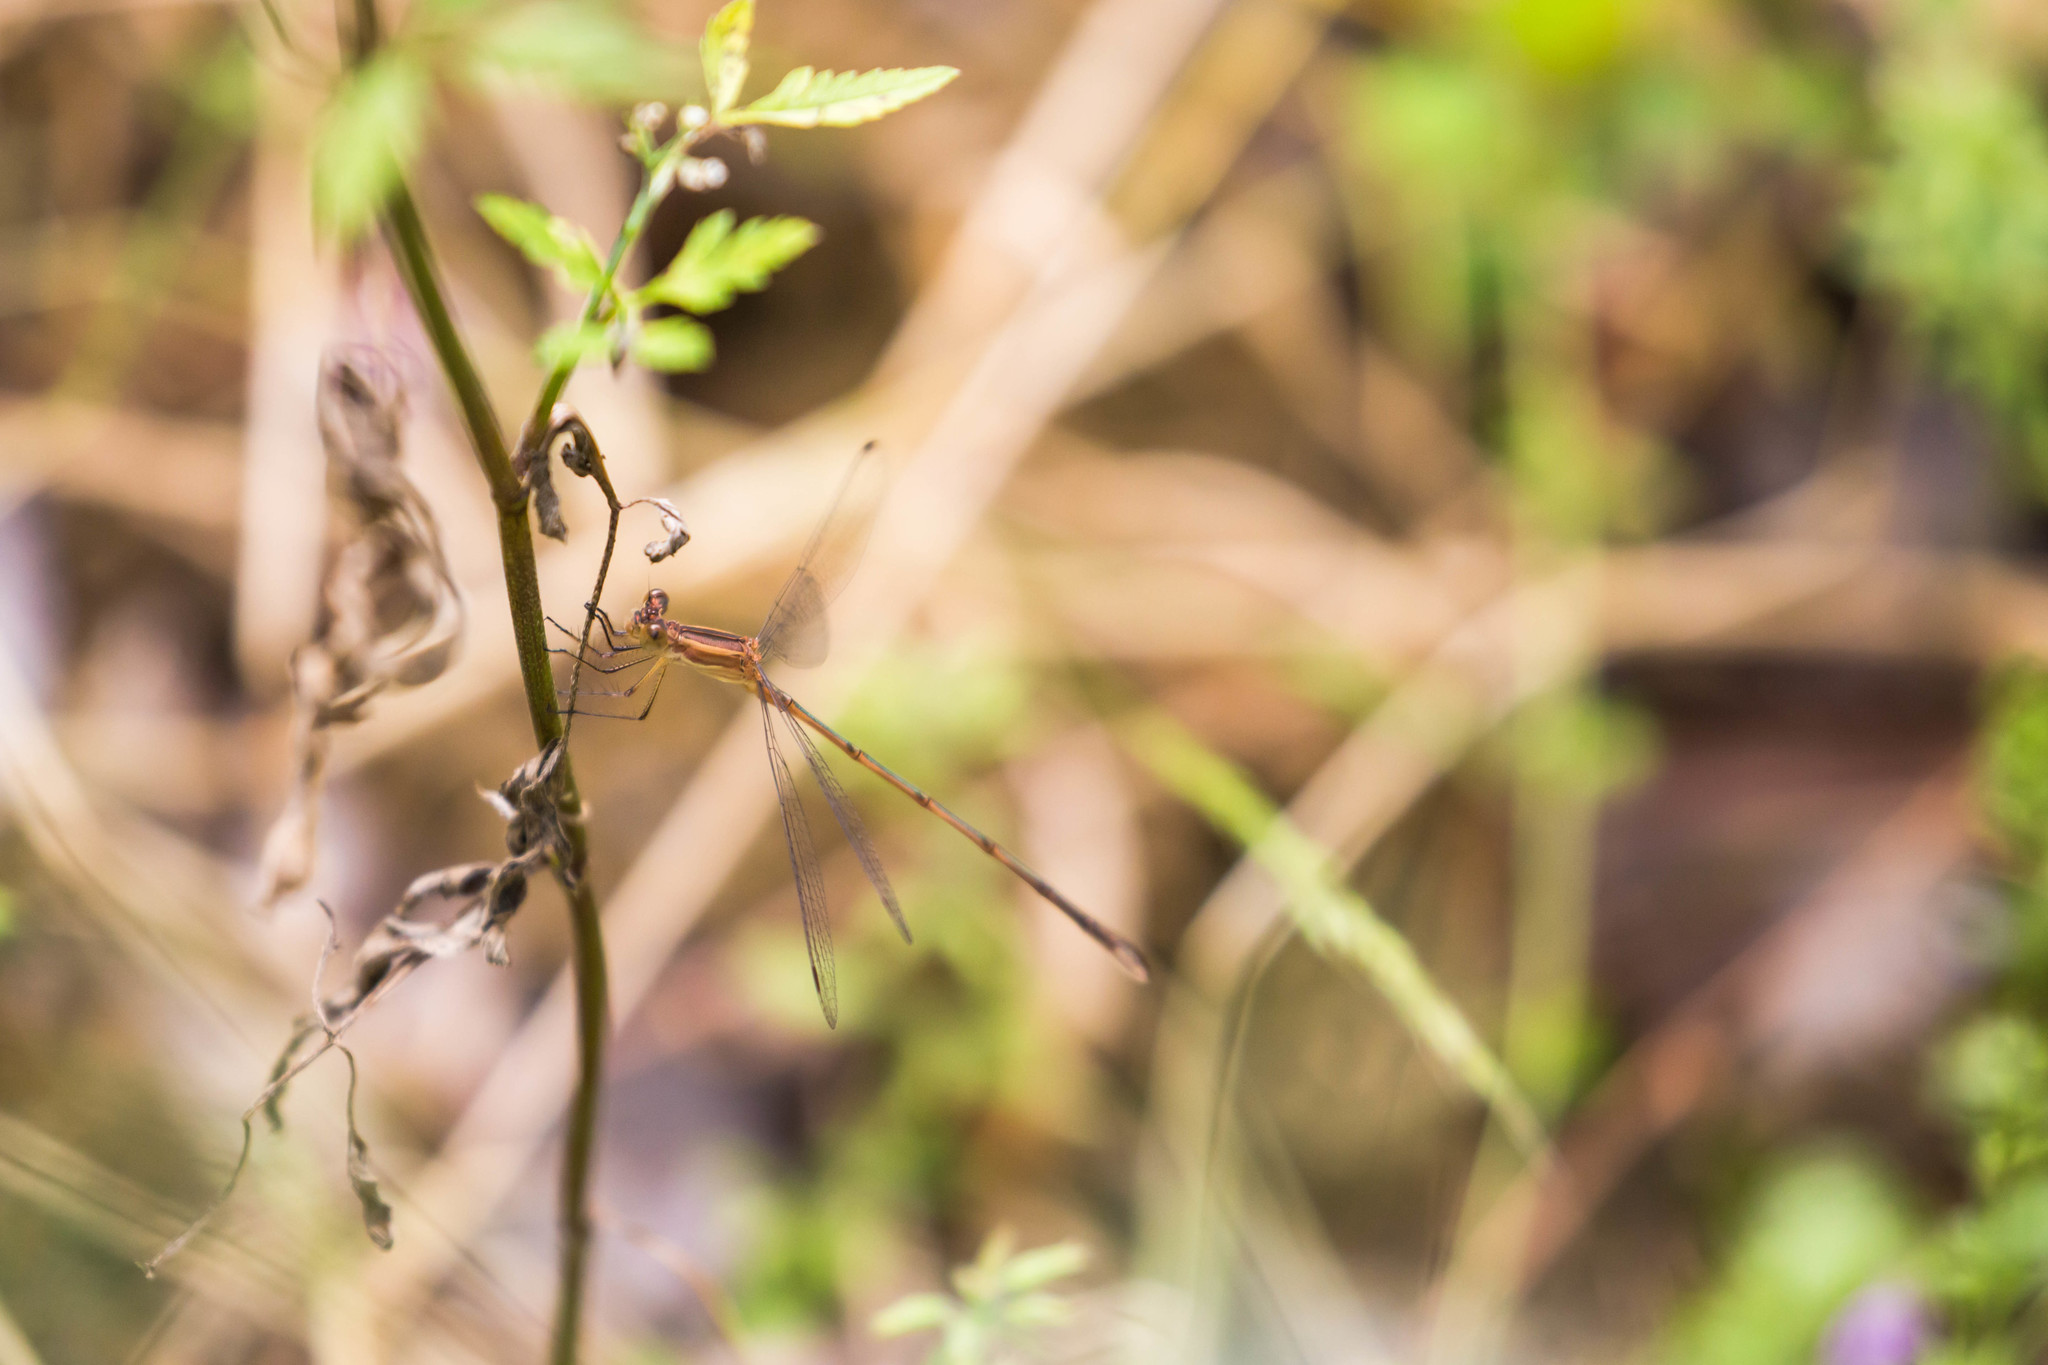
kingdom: Animalia
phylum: Arthropoda
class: Insecta
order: Odonata
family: Lestidae
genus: Lestes
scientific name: Lestes alacer
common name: Plateau spreadwing
